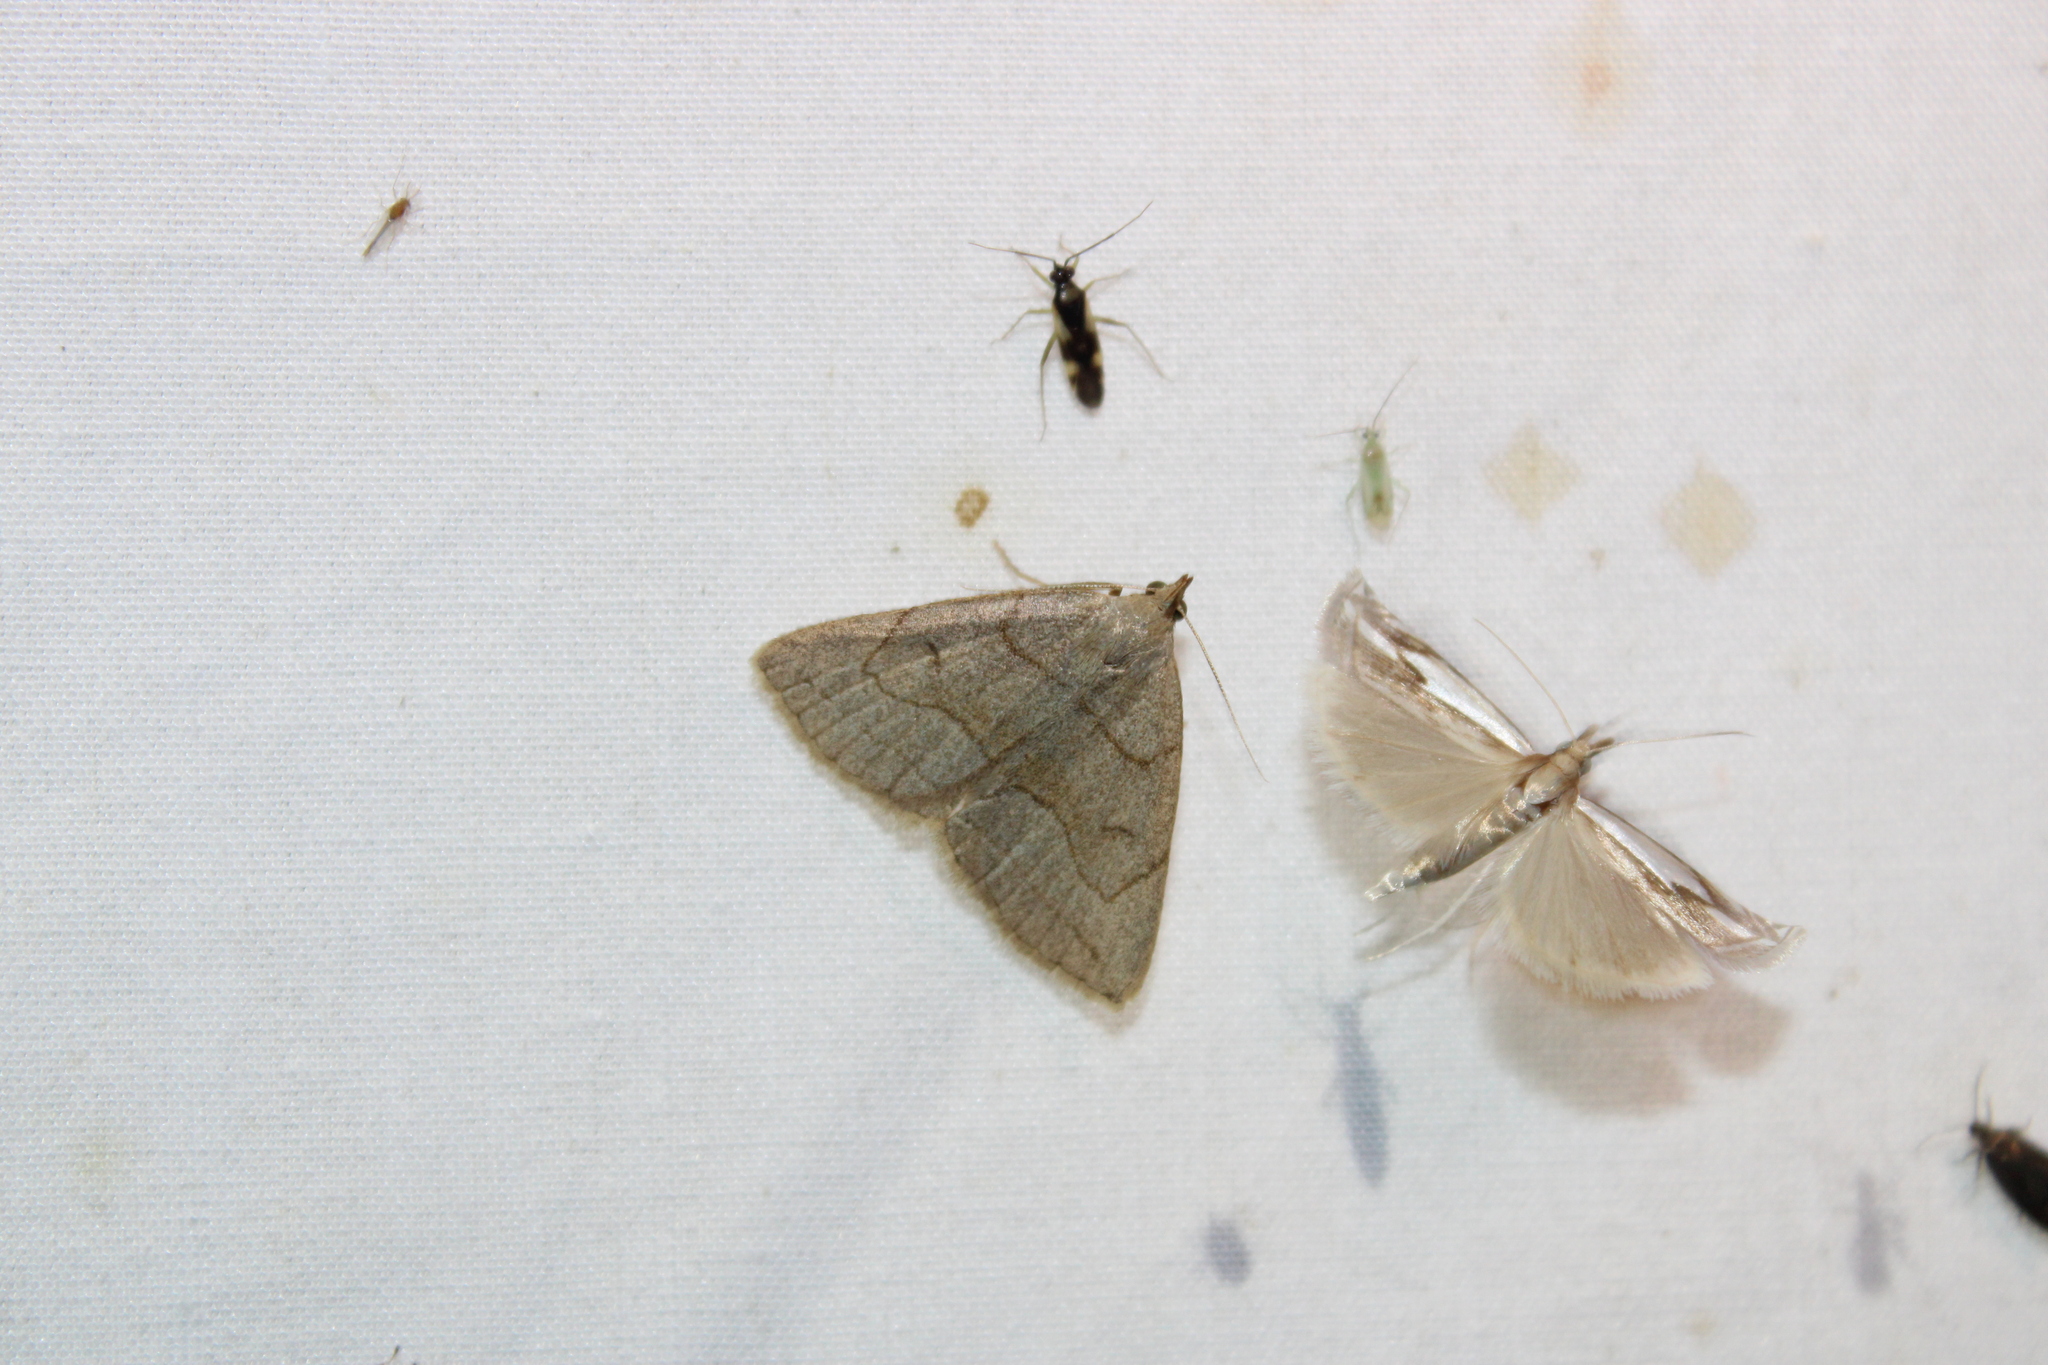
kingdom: Animalia
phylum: Arthropoda
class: Insecta
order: Lepidoptera
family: Erebidae
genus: Zanclognatha
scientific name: Zanclognatha pedipilalis
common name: Grayish fan-foot
